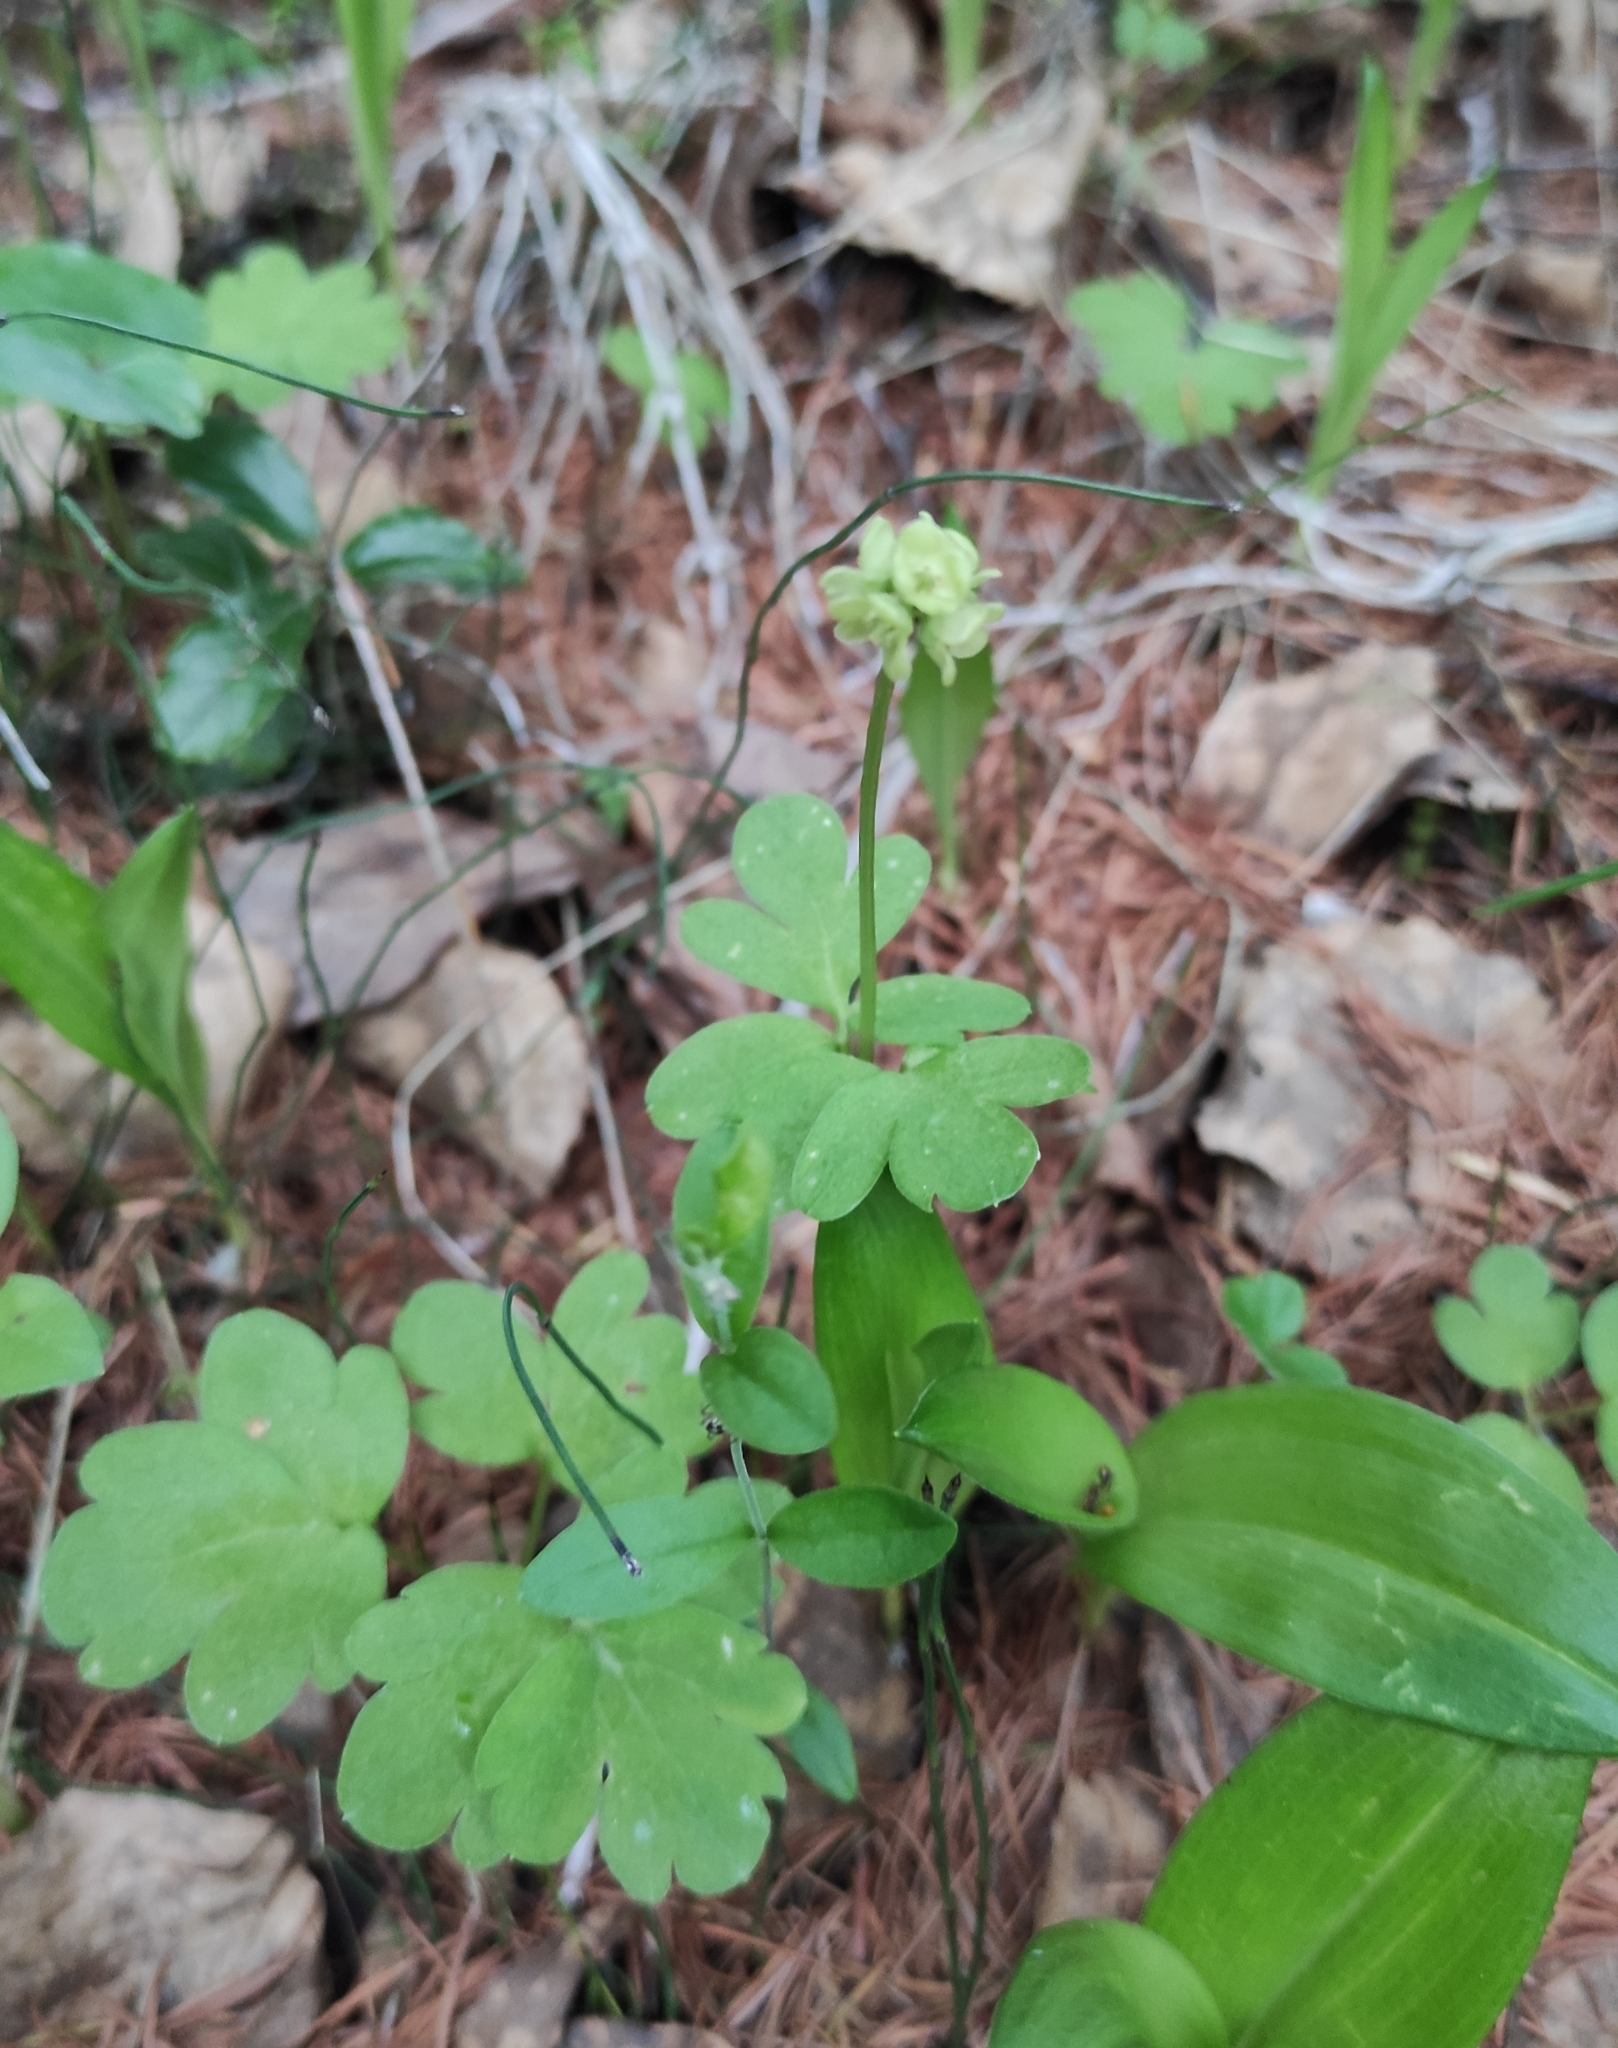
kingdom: Plantae
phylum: Tracheophyta
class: Magnoliopsida
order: Dipsacales
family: Viburnaceae
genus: Adoxa
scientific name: Adoxa moschatellina
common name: Moschatel
